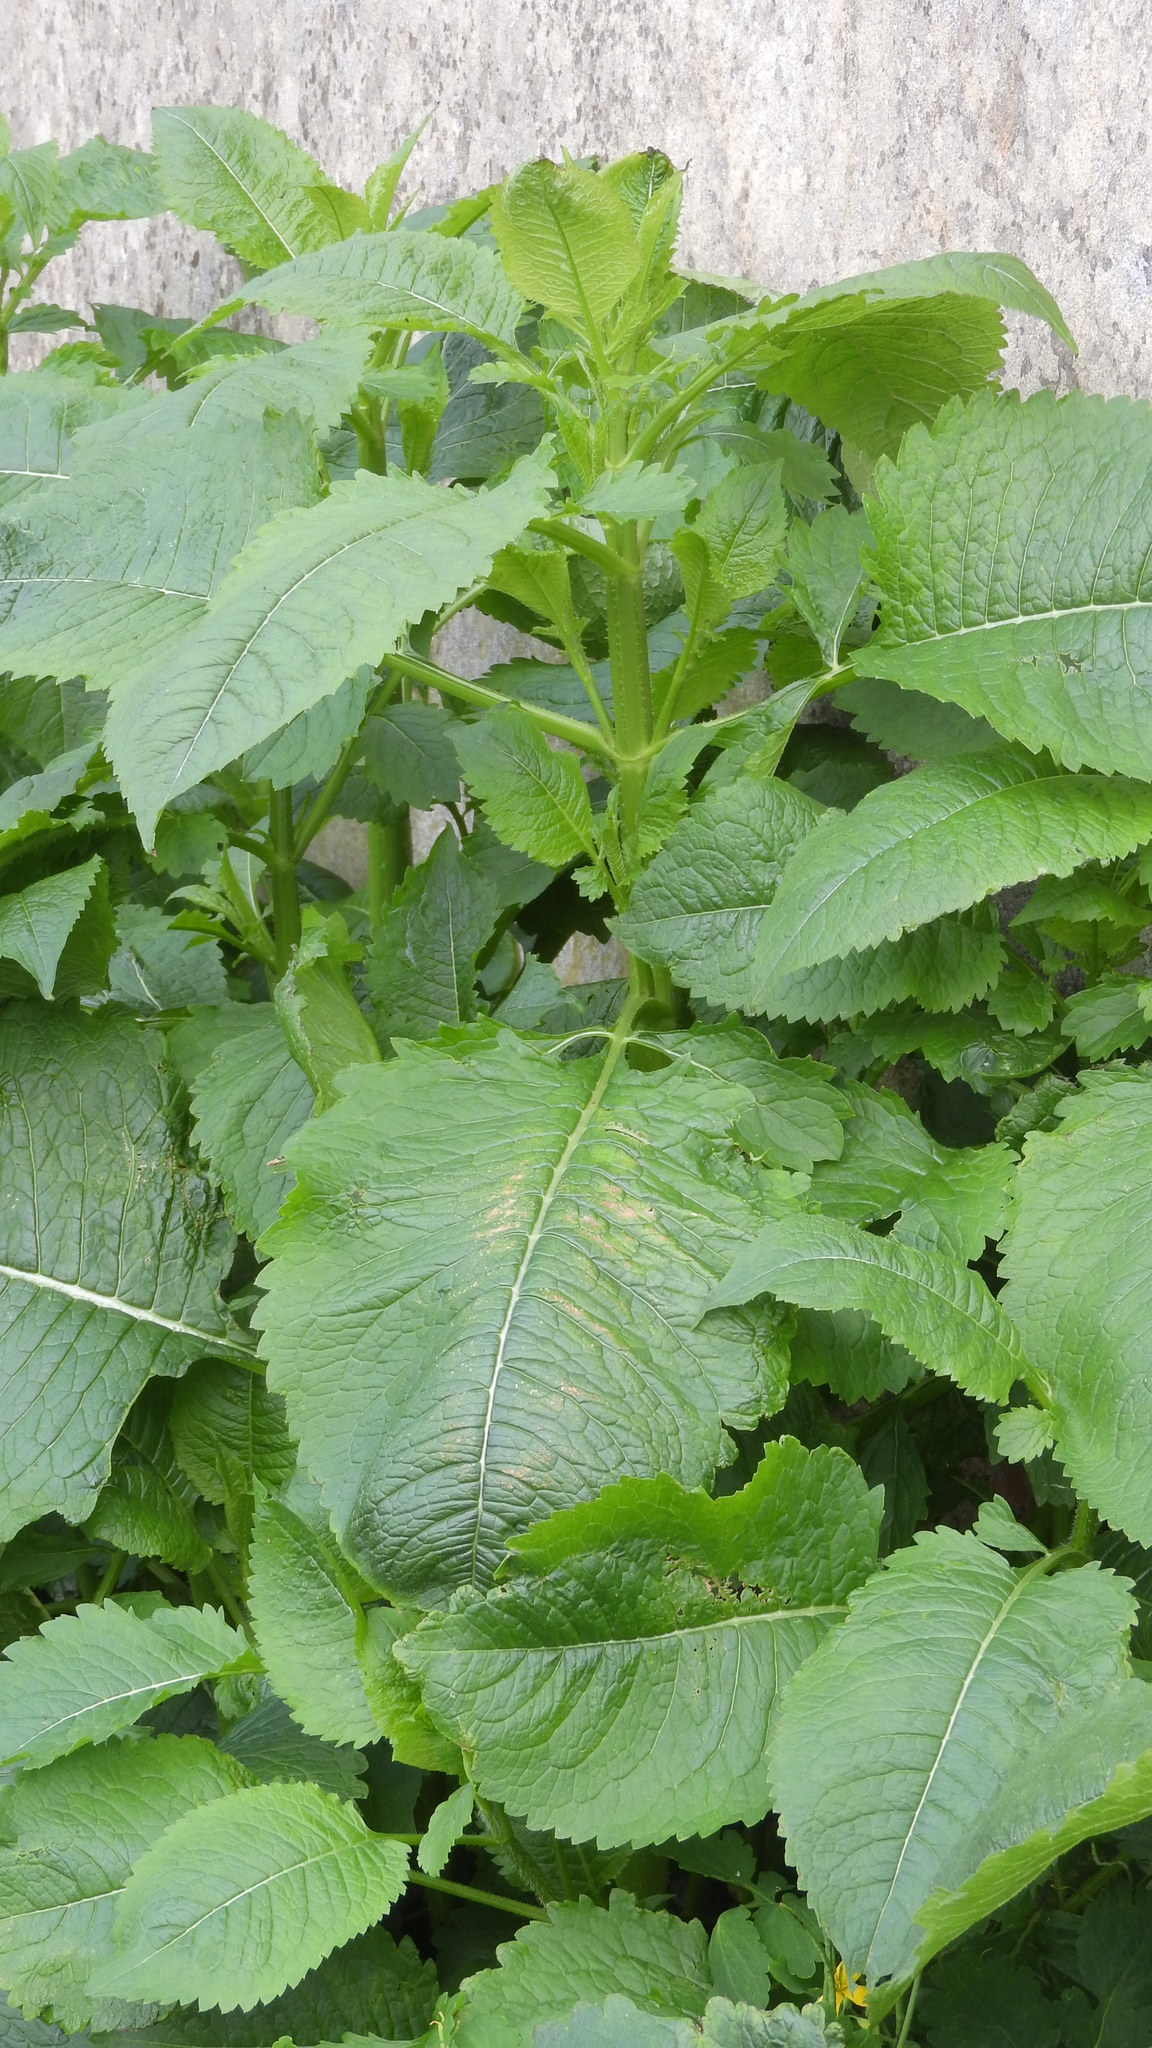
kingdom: Plantae
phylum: Tracheophyta
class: Magnoliopsida
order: Dipsacales
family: Caprifoliaceae
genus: Dipsacus
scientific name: Dipsacus strigosus
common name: Yellow-flowered teasel
